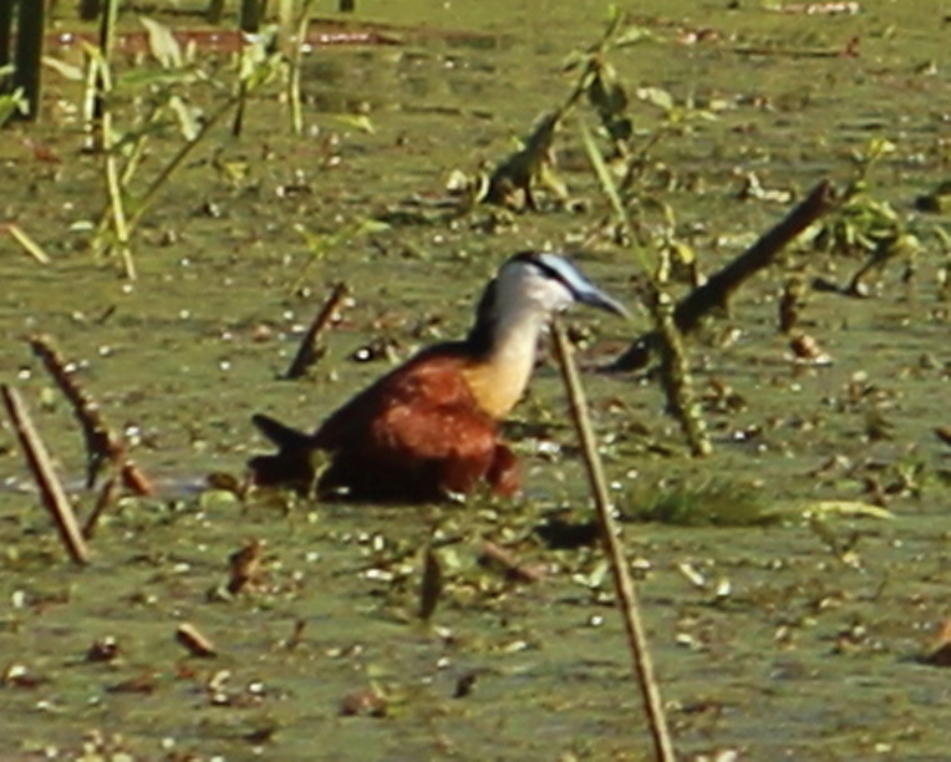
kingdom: Animalia
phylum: Chordata
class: Aves
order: Charadriiformes
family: Jacanidae
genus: Actophilornis
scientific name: Actophilornis africanus
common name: African jacana
